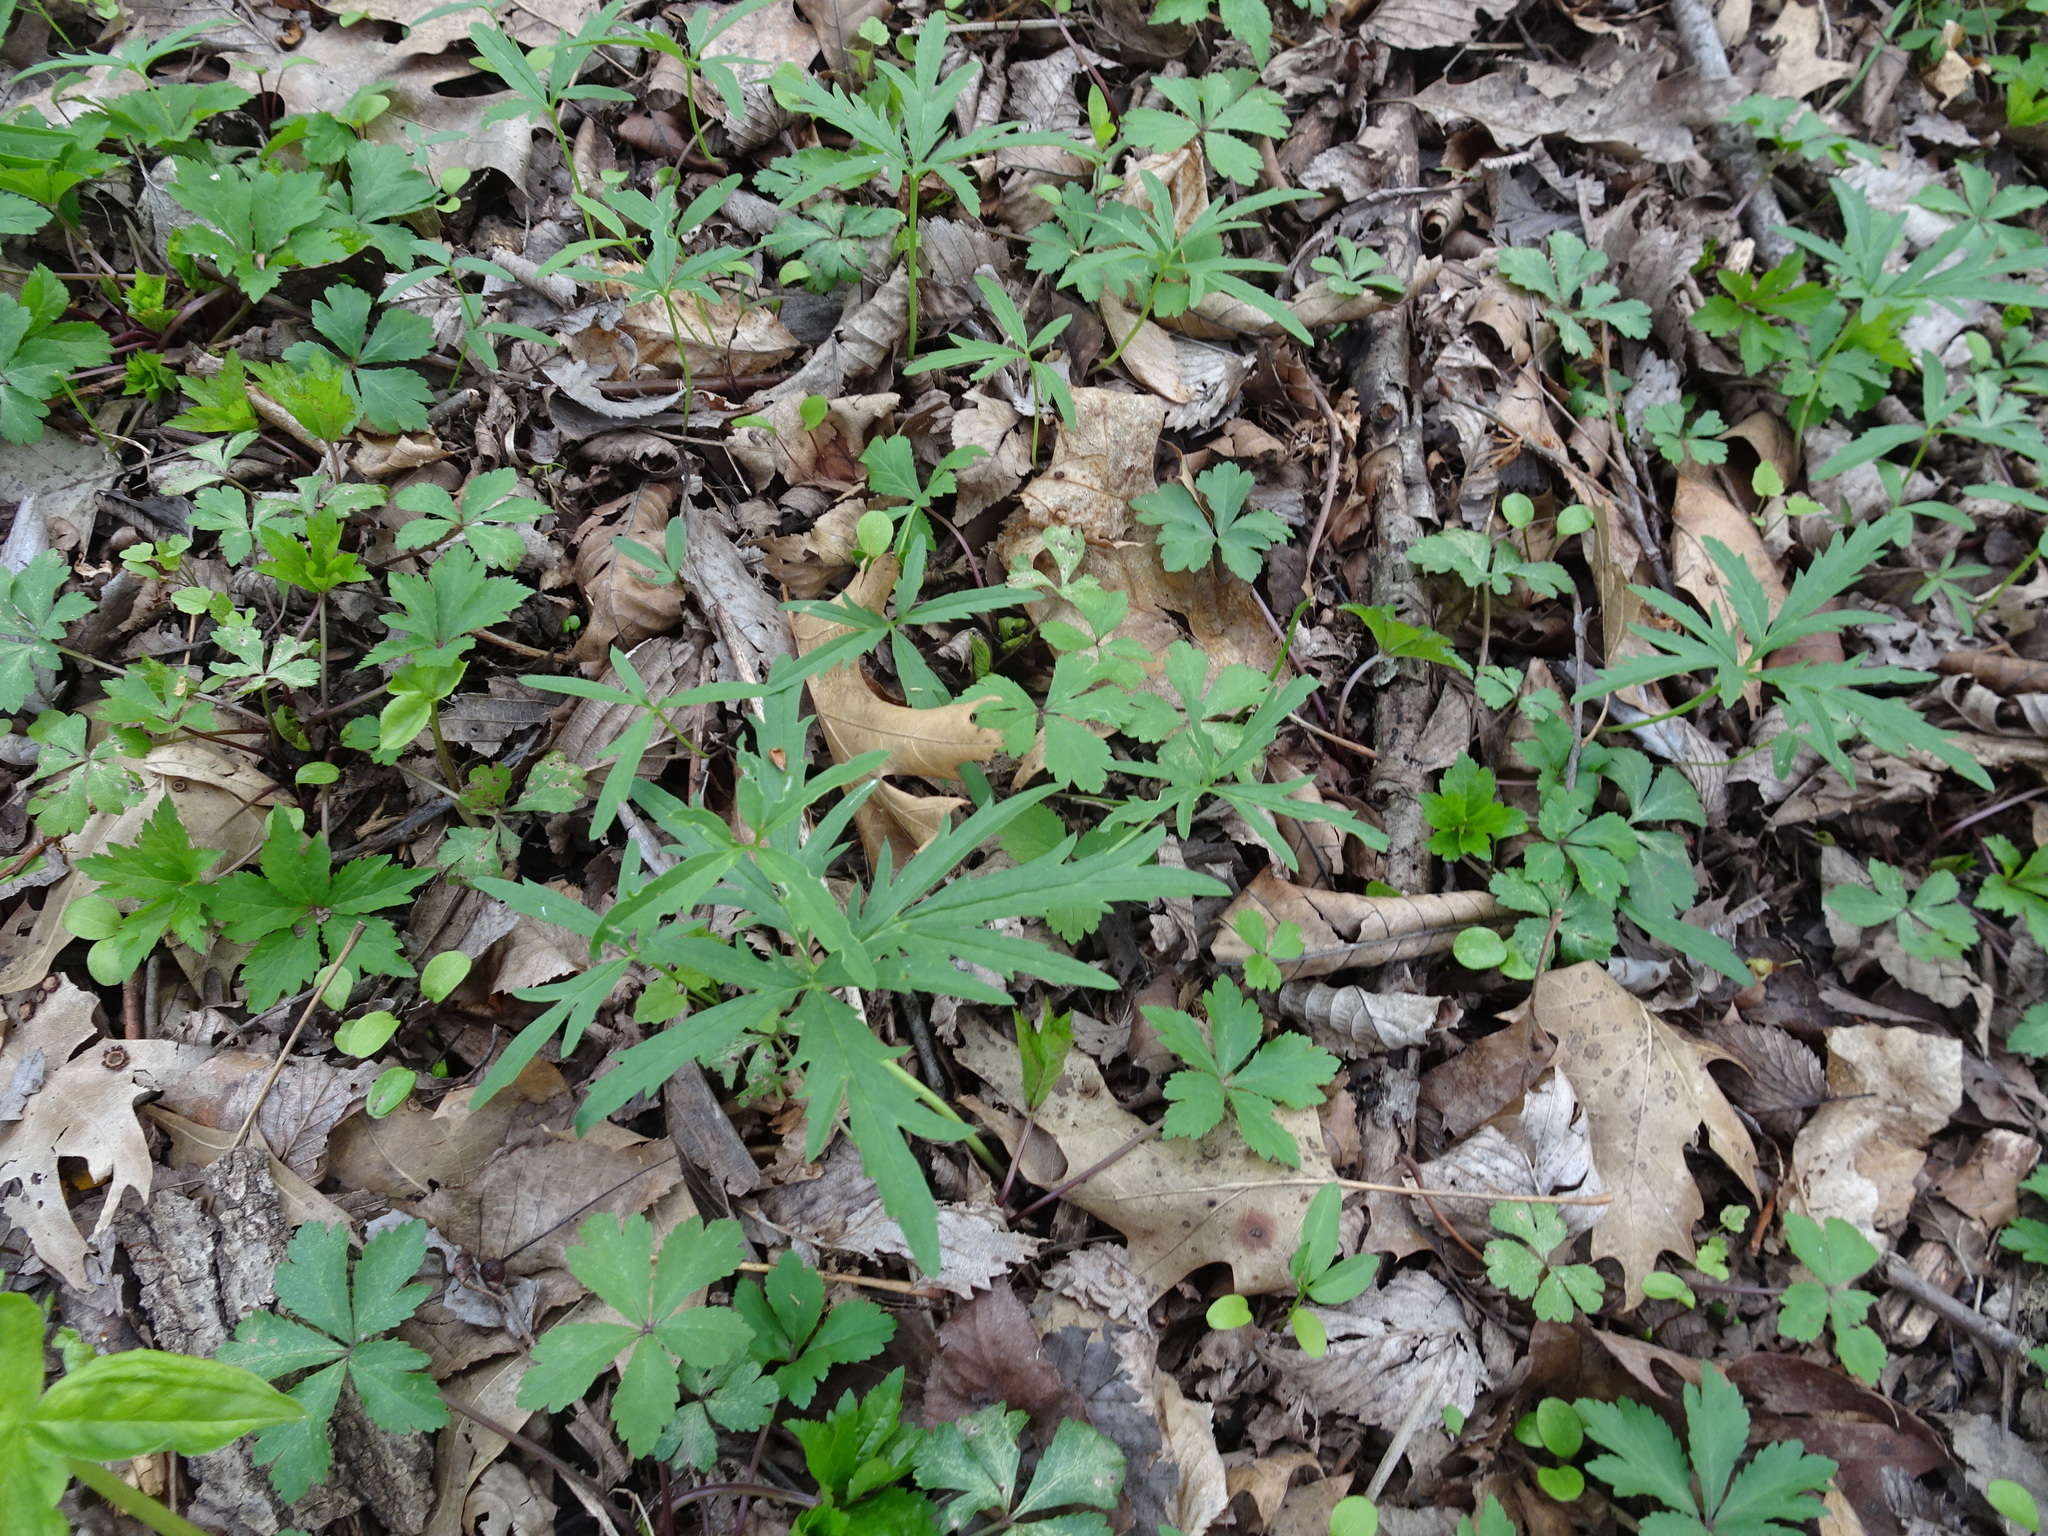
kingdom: Plantae
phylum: Tracheophyta
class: Magnoliopsida
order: Brassicales
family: Brassicaceae
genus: Cardamine
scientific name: Cardamine concatenata
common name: Cut-leaf toothcup
